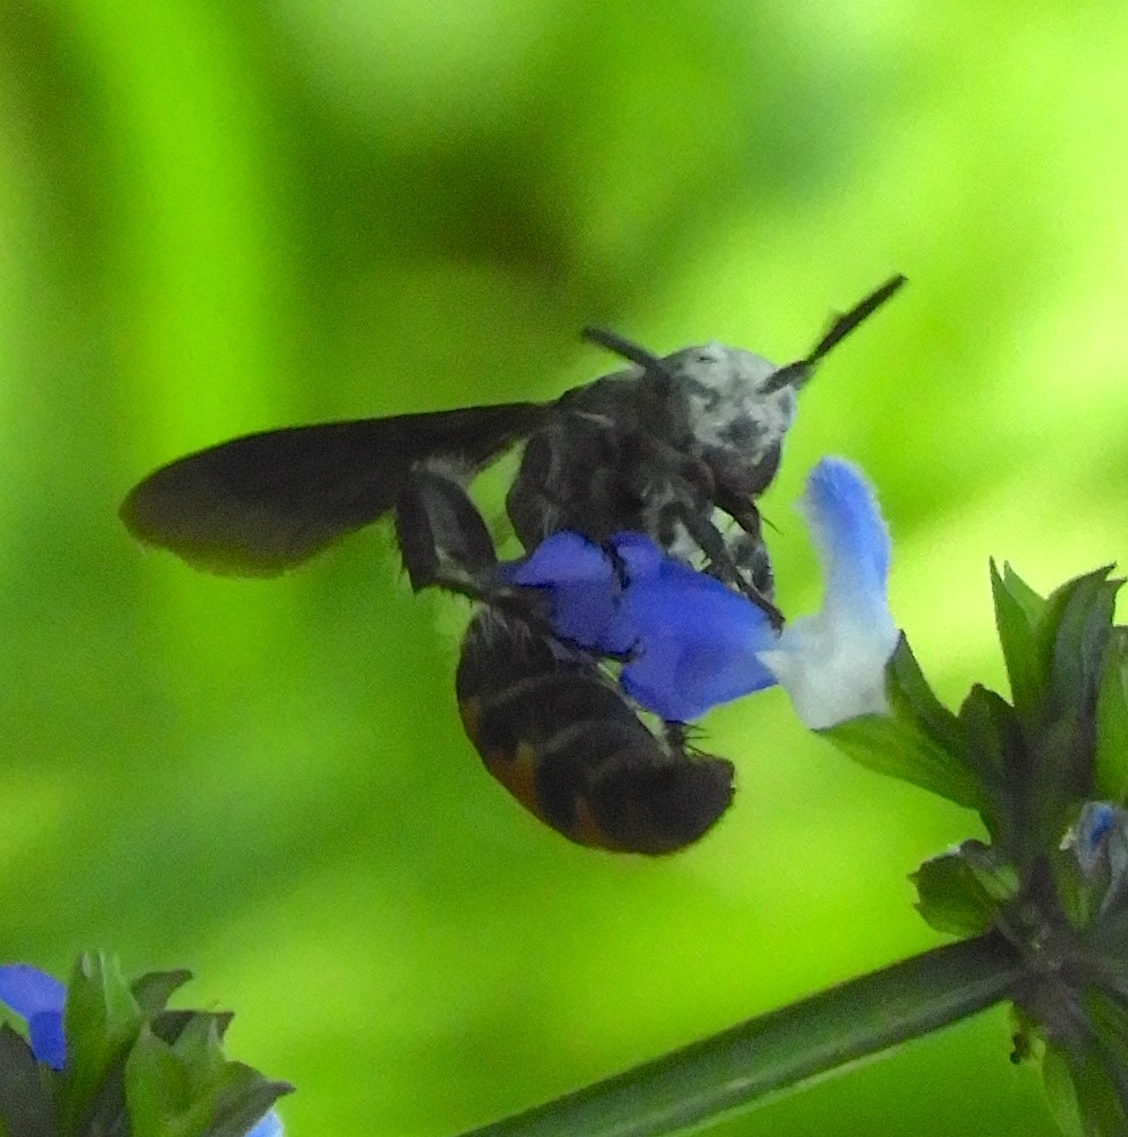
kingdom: Animalia
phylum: Arthropoda
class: Insecta
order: Hymenoptera
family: Scoliidae
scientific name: Scoliidae
